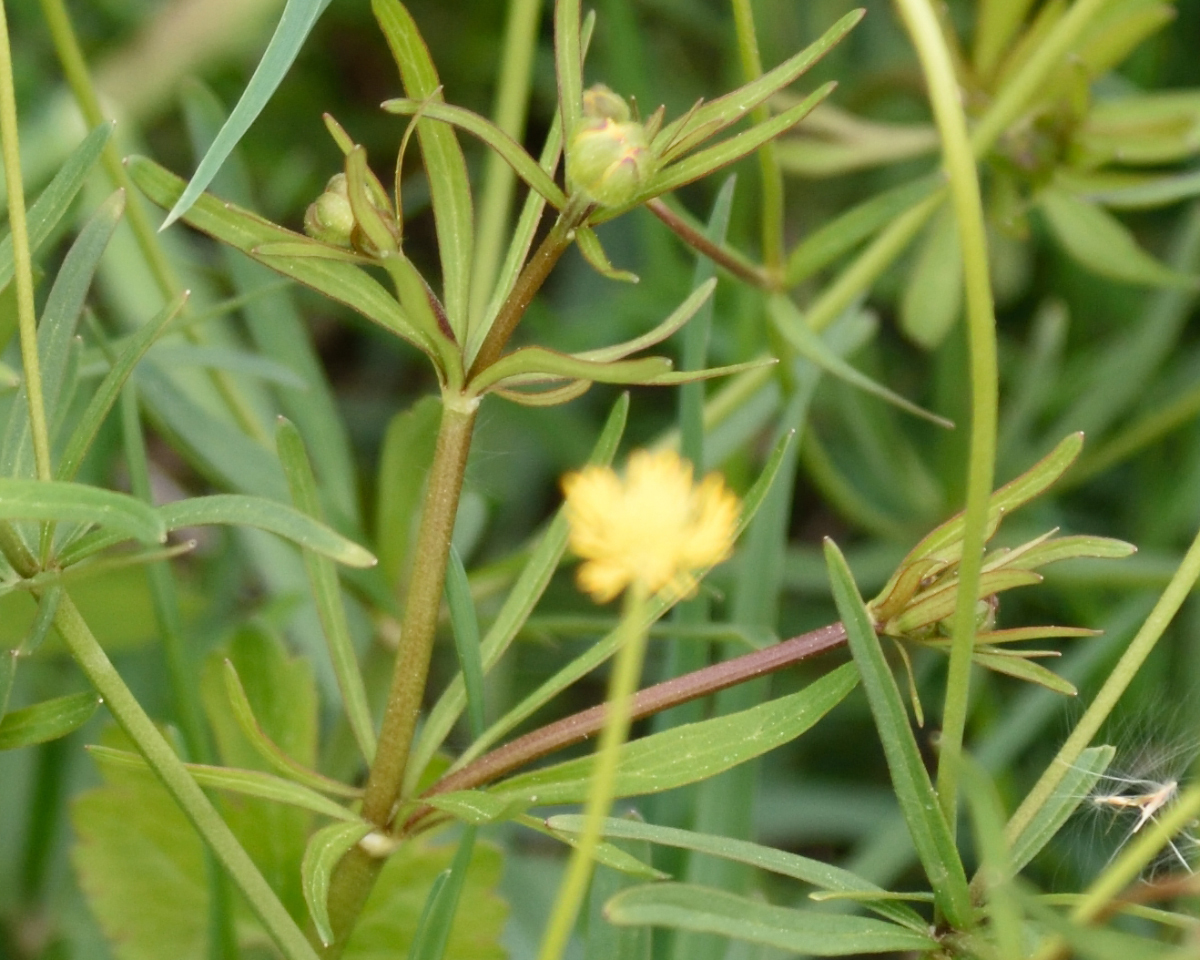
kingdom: Plantae
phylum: Tracheophyta
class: Magnoliopsida
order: Ranunculales
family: Ranunculaceae
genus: Ranunculus
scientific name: Ranunculus auricomus
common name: Goldilocks buttercup
